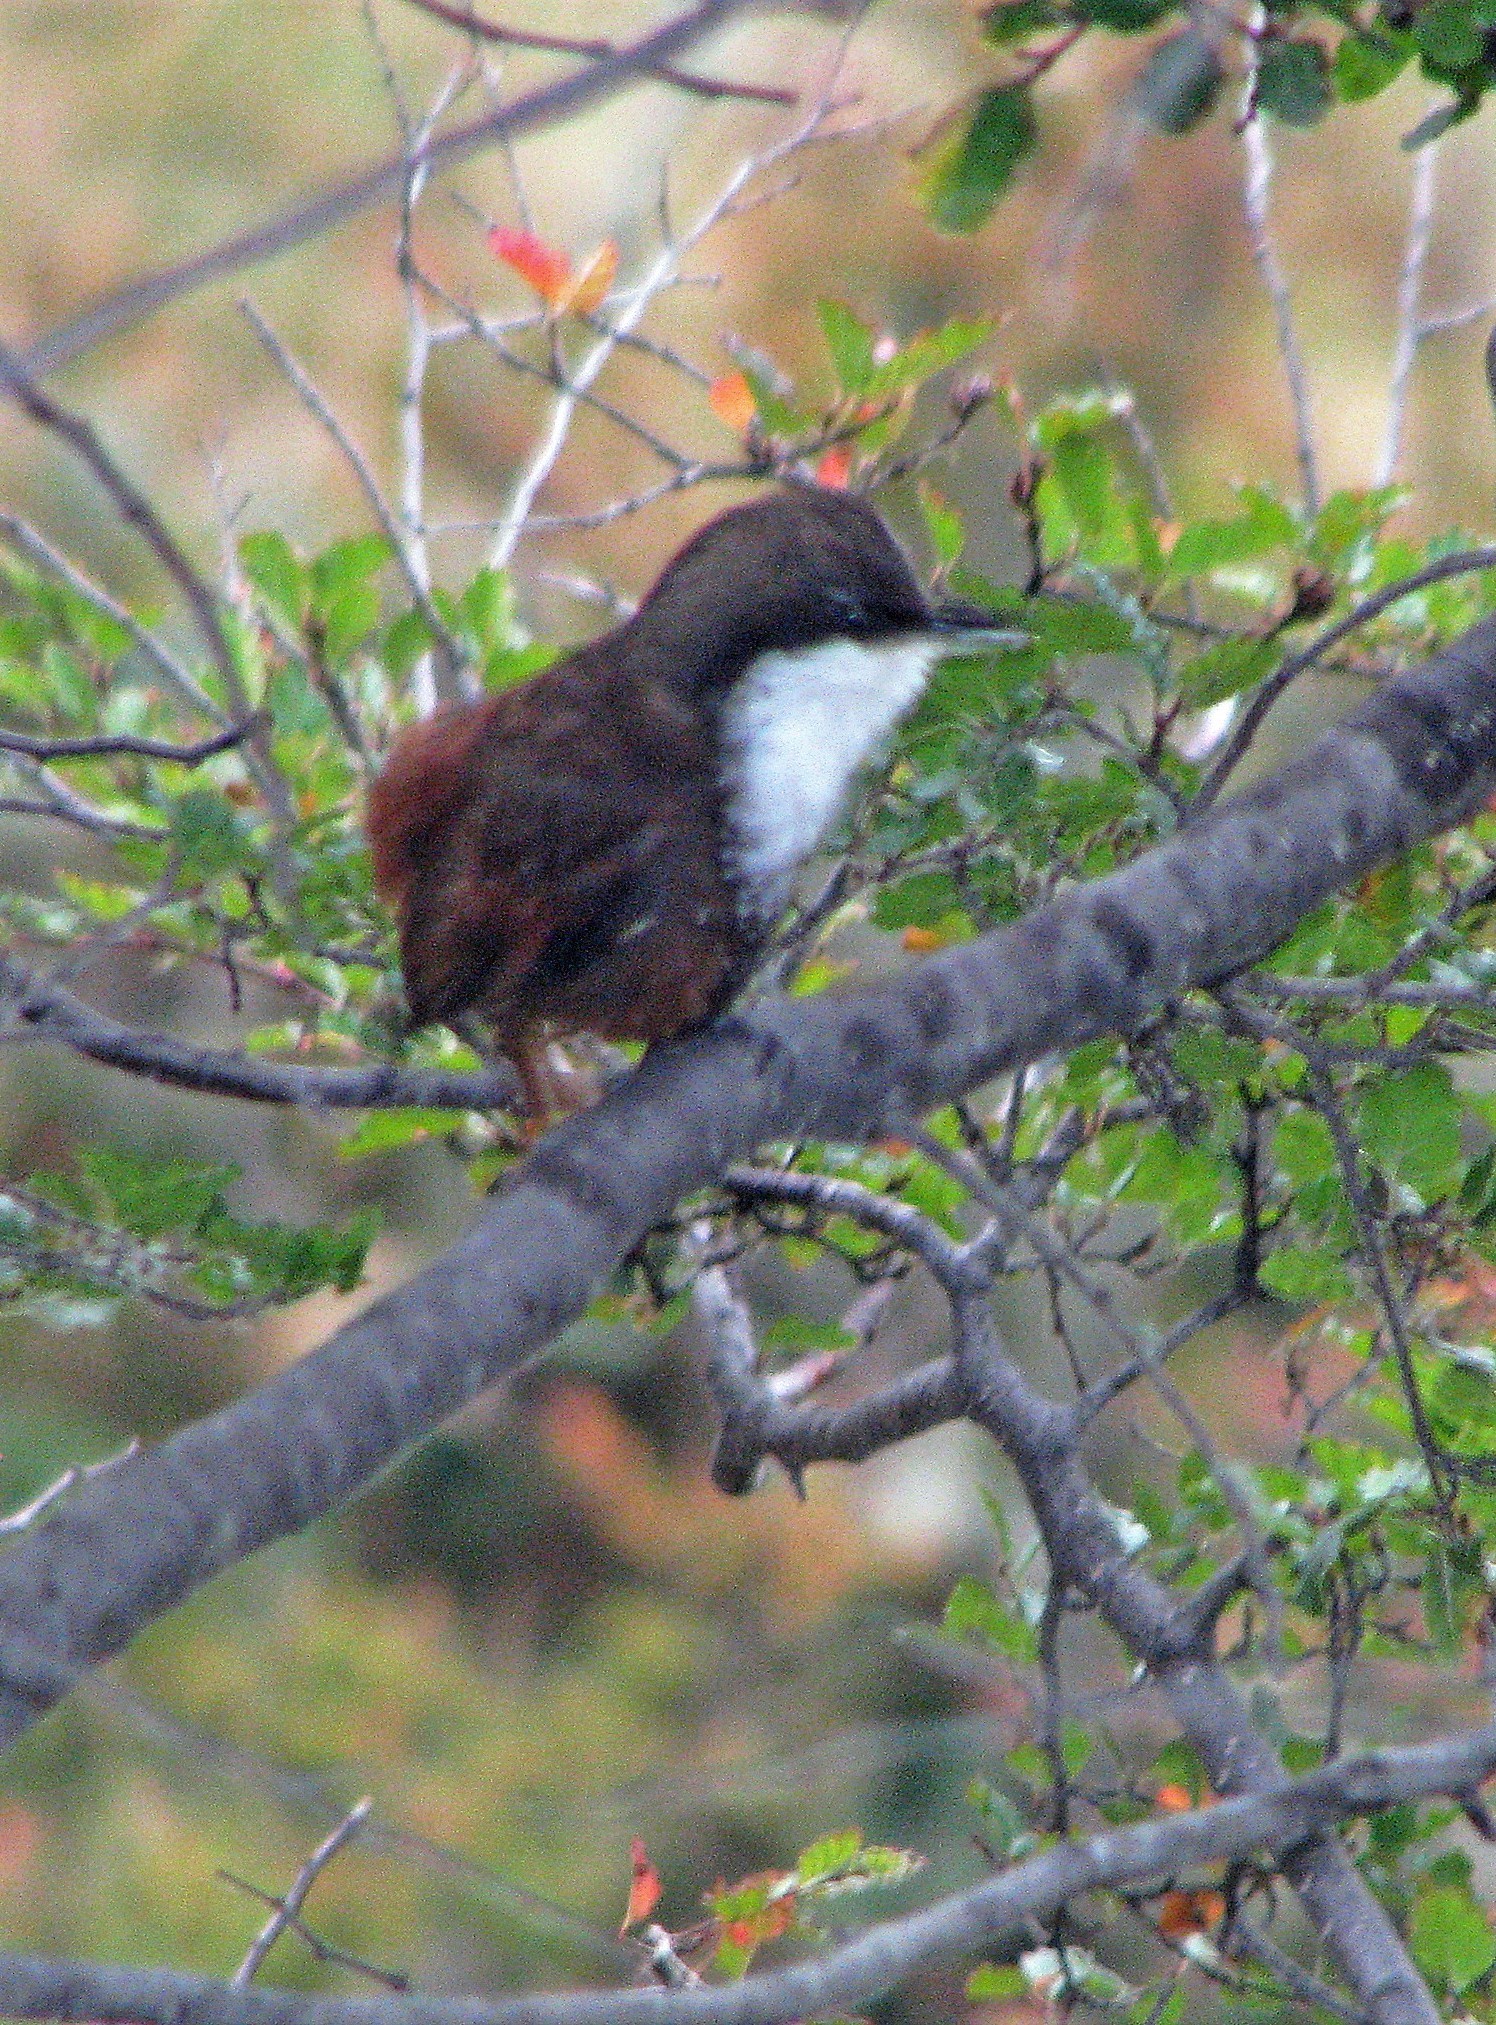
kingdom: Animalia
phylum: Chordata
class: Aves
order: Passeriformes
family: Furnariidae
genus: Pygarrhichas
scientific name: Pygarrhichas albogularis
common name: White-throated treerunner
